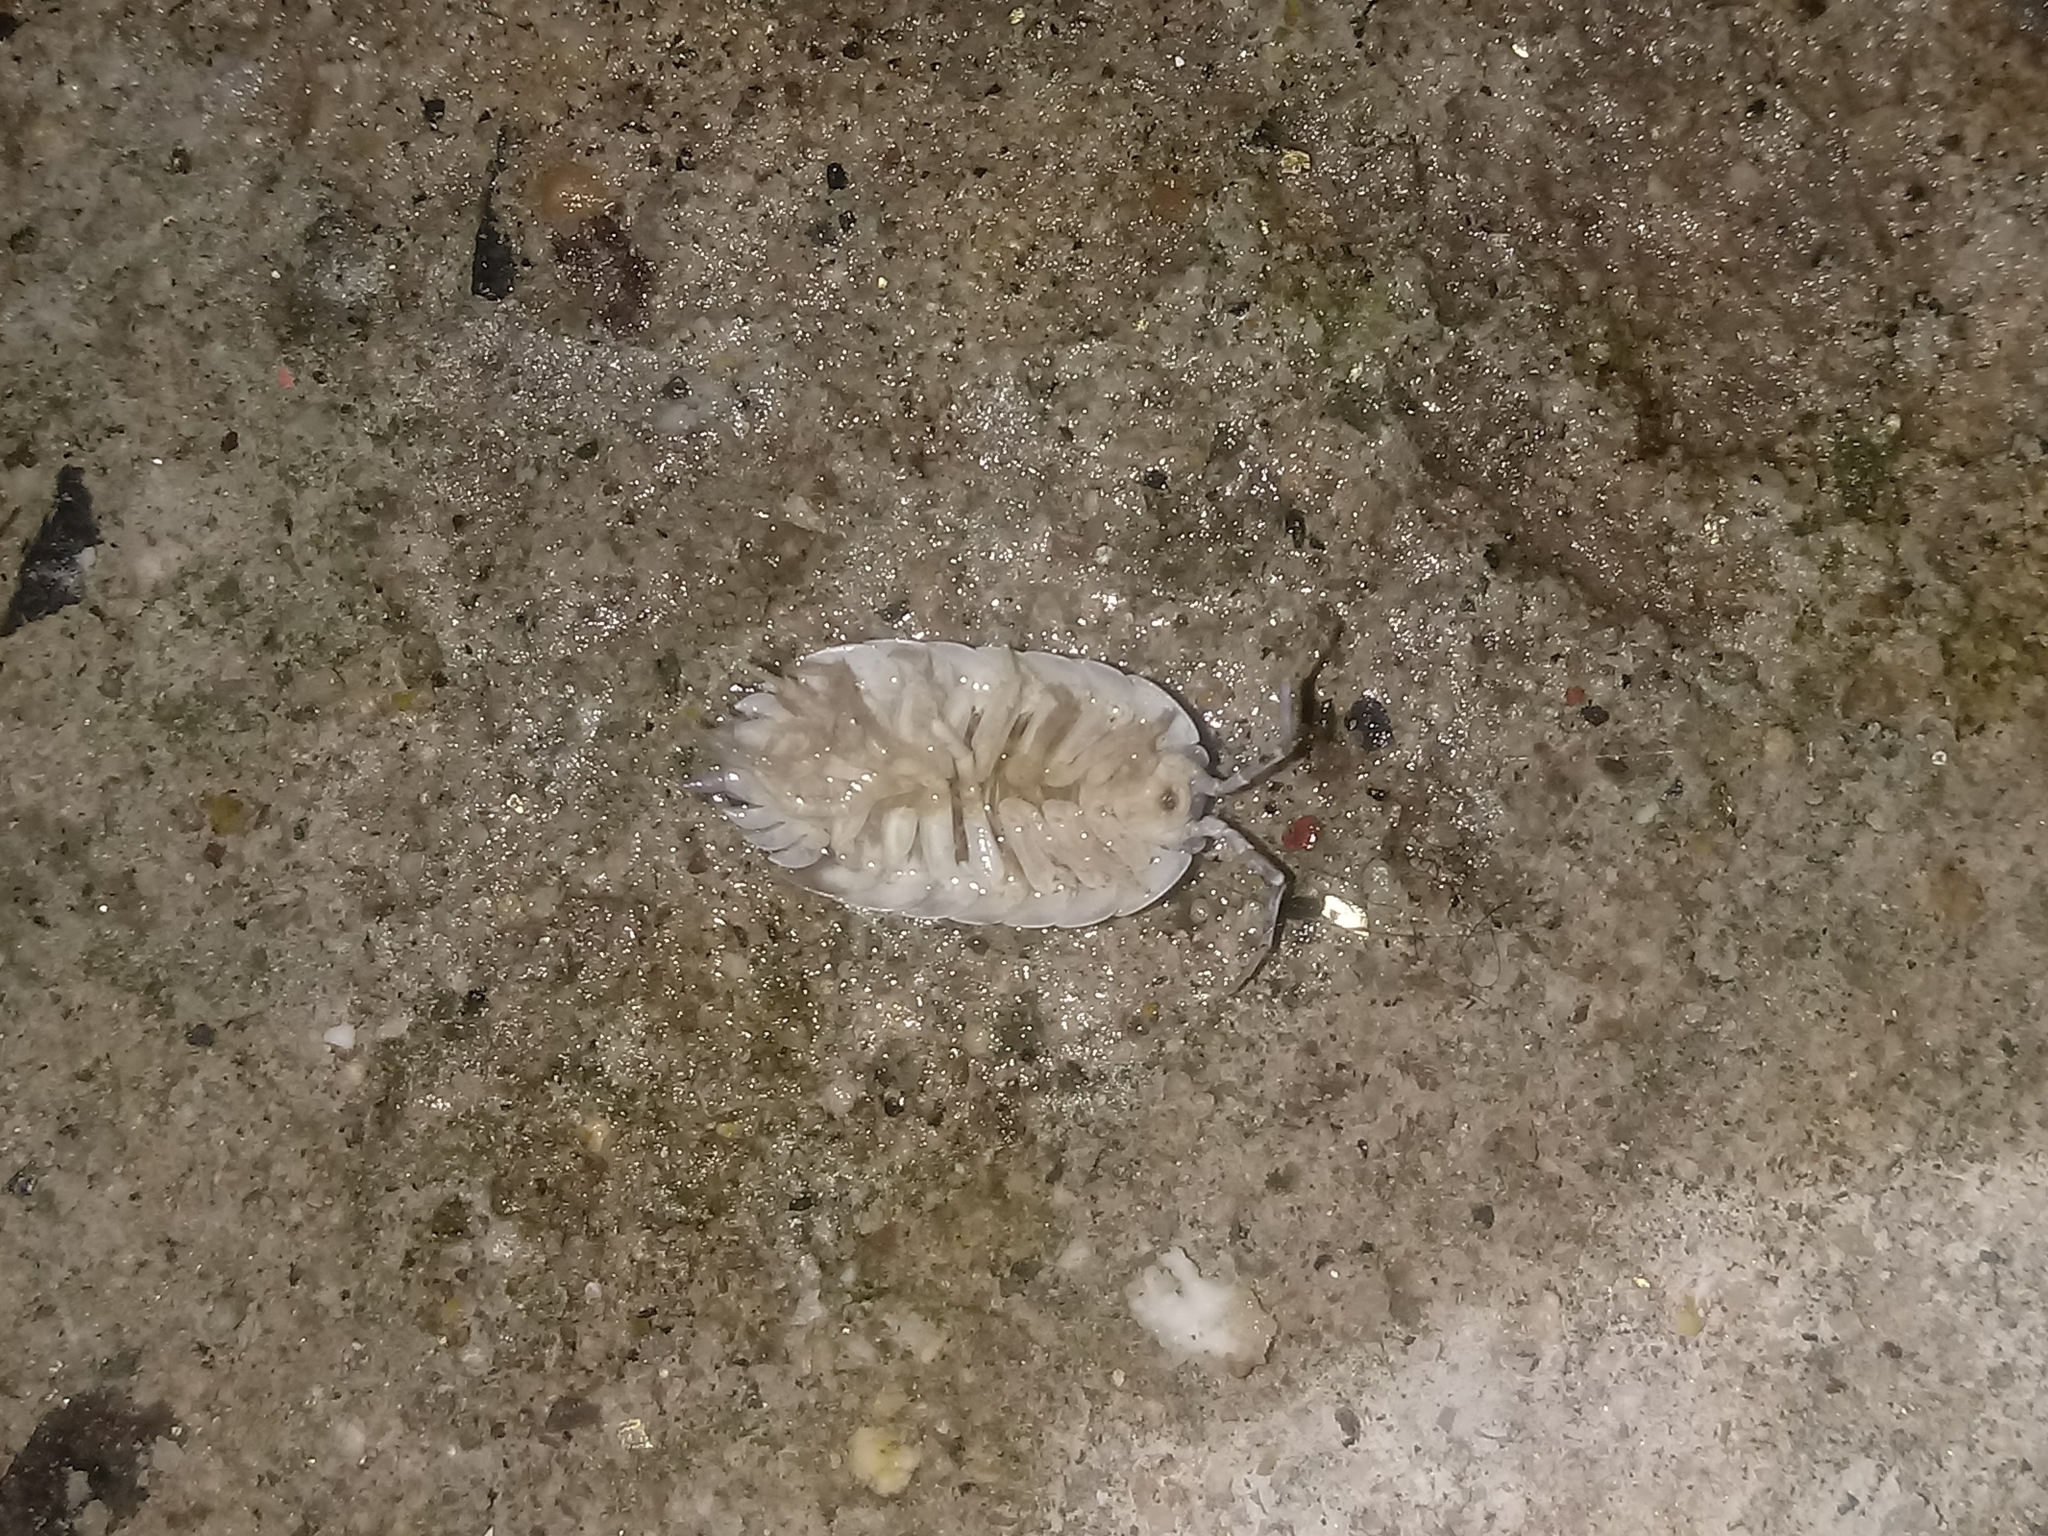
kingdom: Animalia
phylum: Arthropoda
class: Malacostraca
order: Isopoda
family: Porcellionidae
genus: Porcellio
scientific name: Porcellio laevis
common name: Swift woodlouse
